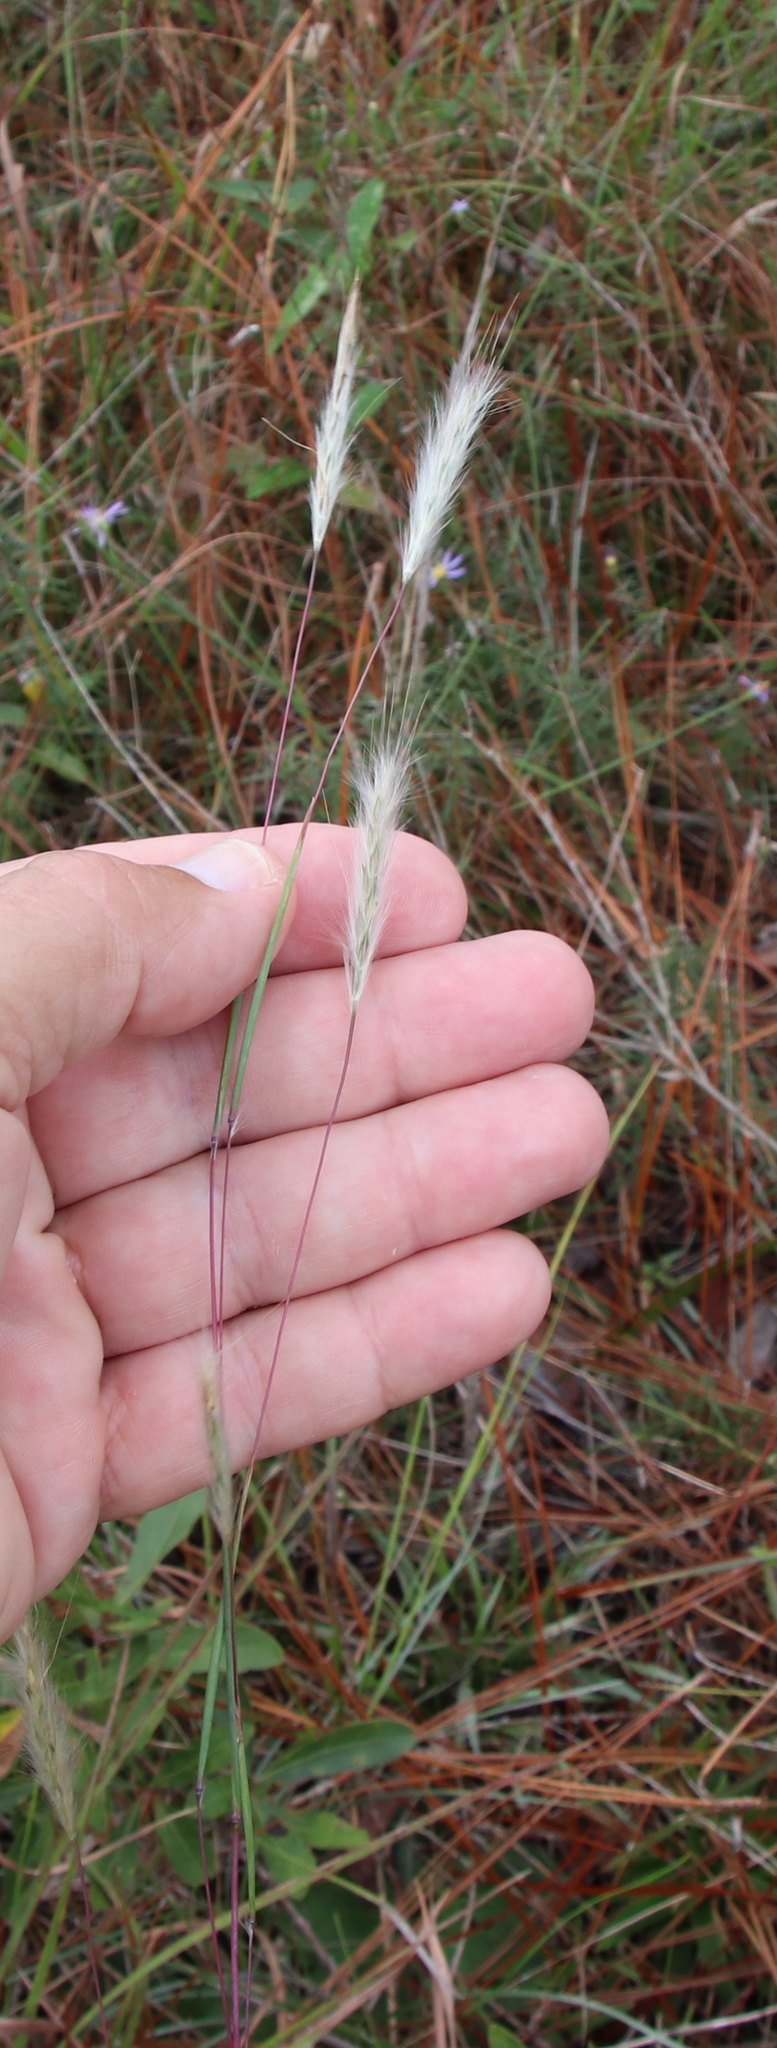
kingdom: Plantae
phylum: Tracheophyta
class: Liliopsida
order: Poales
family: Poaceae
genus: Andropogon
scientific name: Andropogon ternarius
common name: Split bluestem
